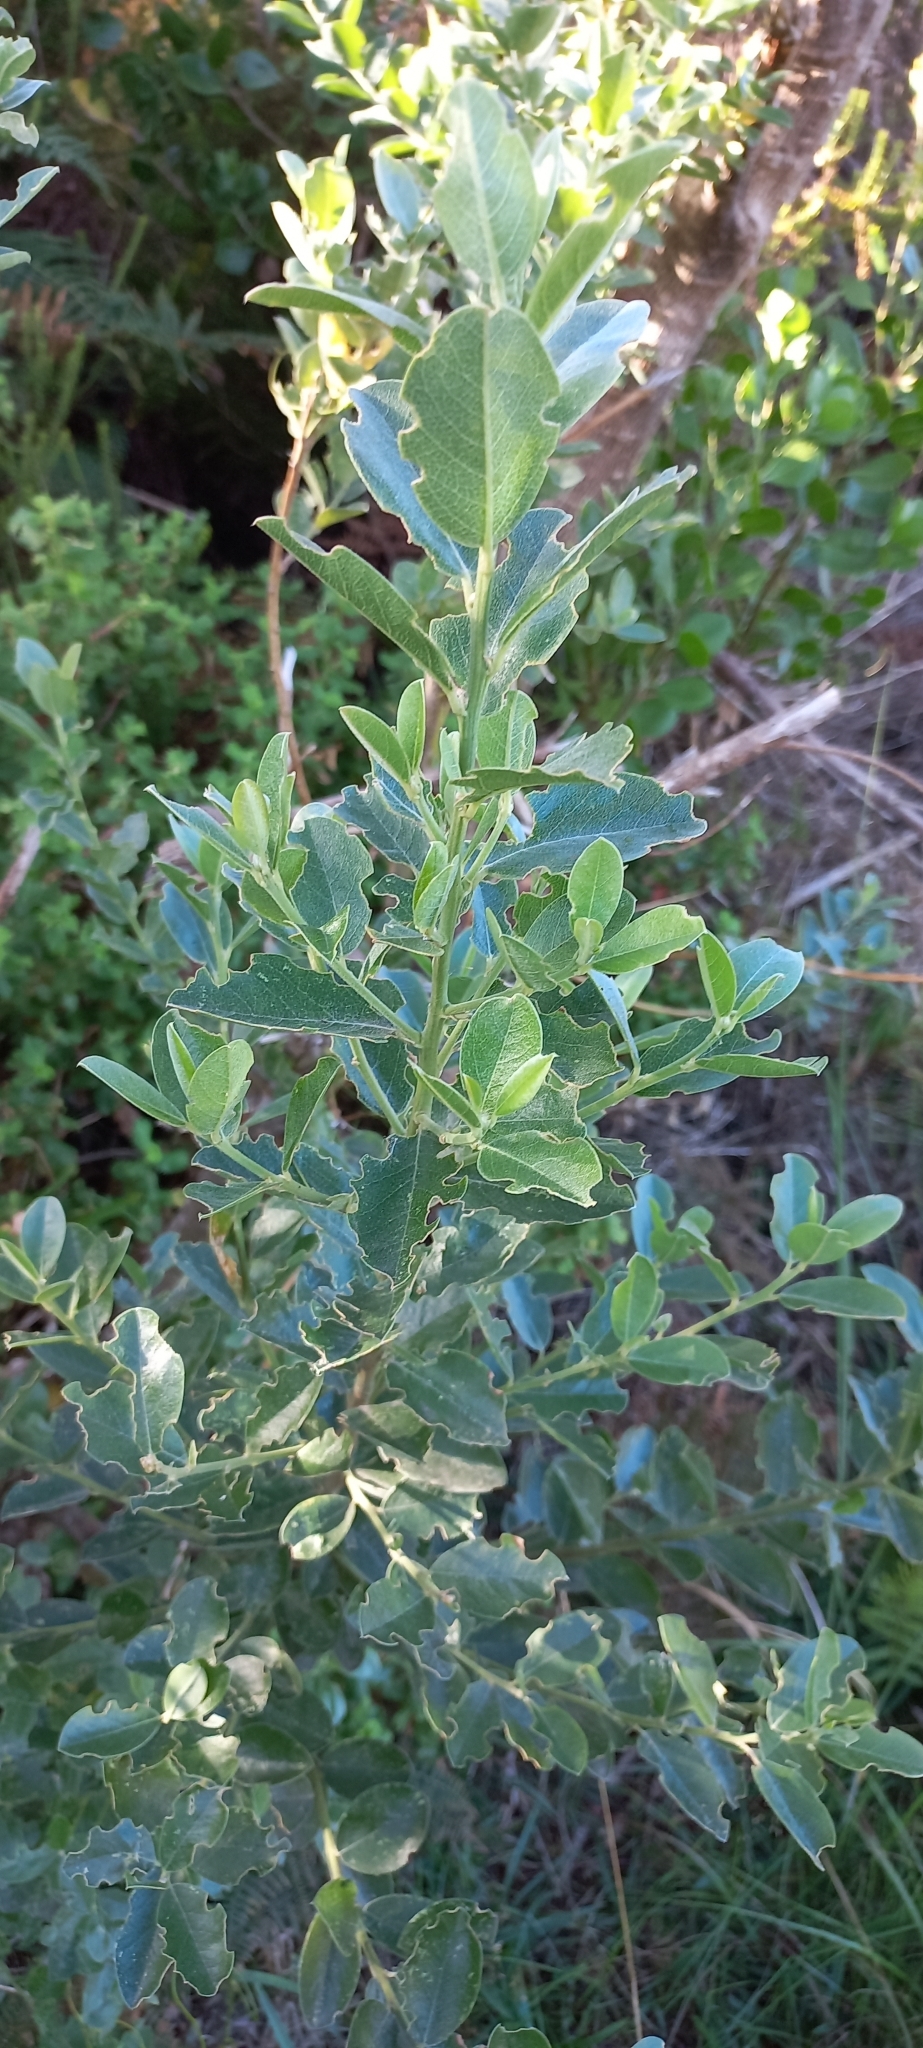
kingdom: Plantae
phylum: Tracheophyta
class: Magnoliopsida
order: Fabales
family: Fabaceae
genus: Podalyria
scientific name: Podalyria calyptrata
